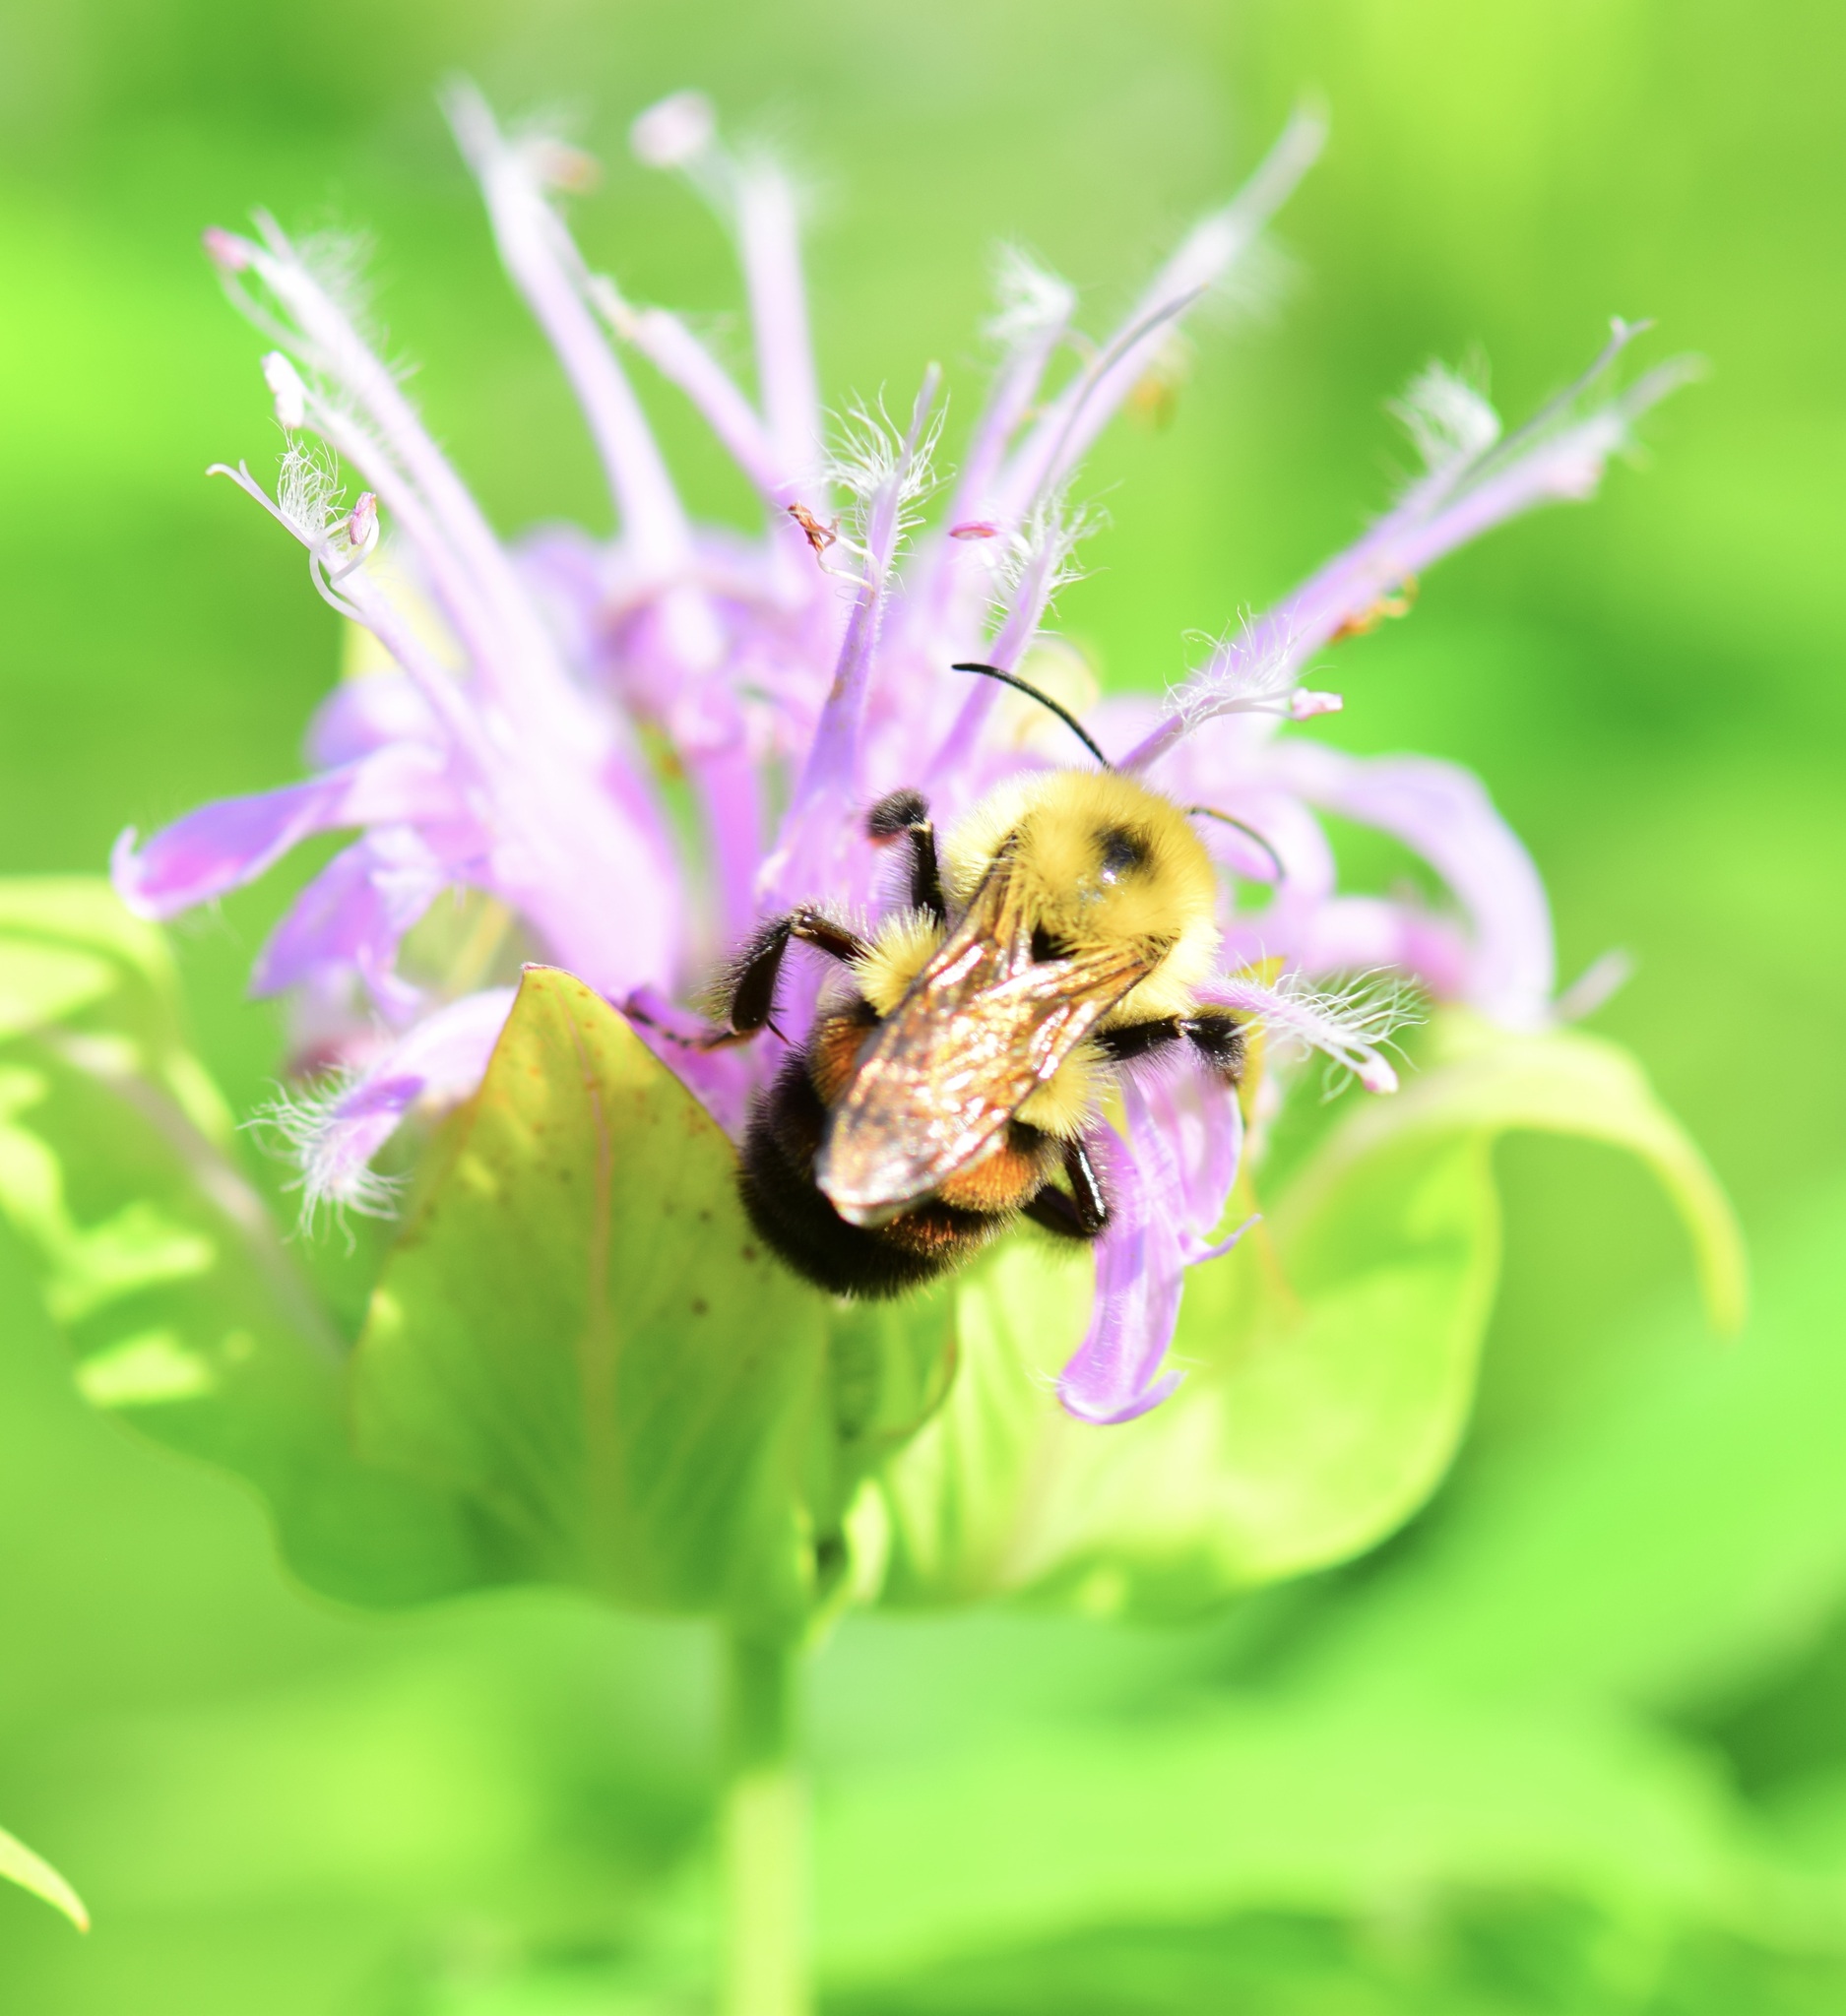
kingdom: Animalia
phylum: Arthropoda
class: Insecta
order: Hymenoptera
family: Apidae
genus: Bombus
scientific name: Bombus bimaculatus
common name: Two-spotted bumble bee
